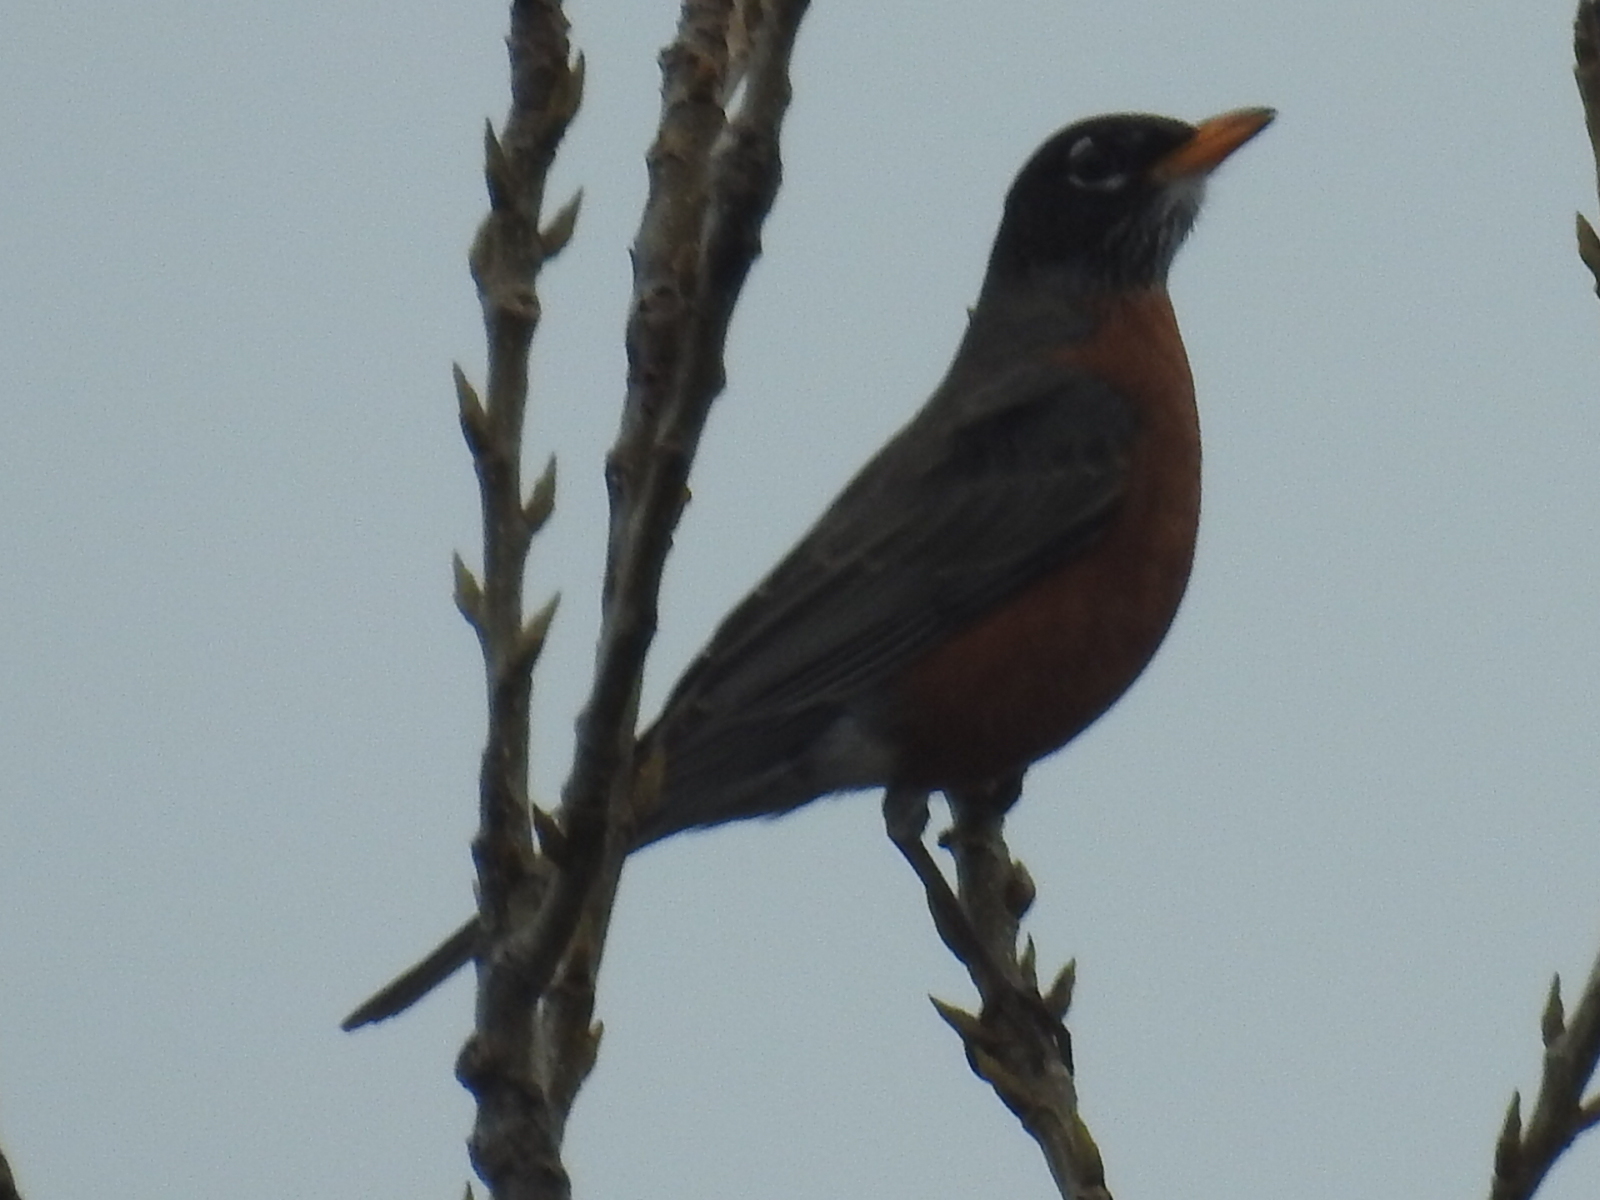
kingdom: Animalia
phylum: Chordata
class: Aves
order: Passeriformes
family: Turdidae
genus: Turdus
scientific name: Turdus migratorius
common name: American robin
